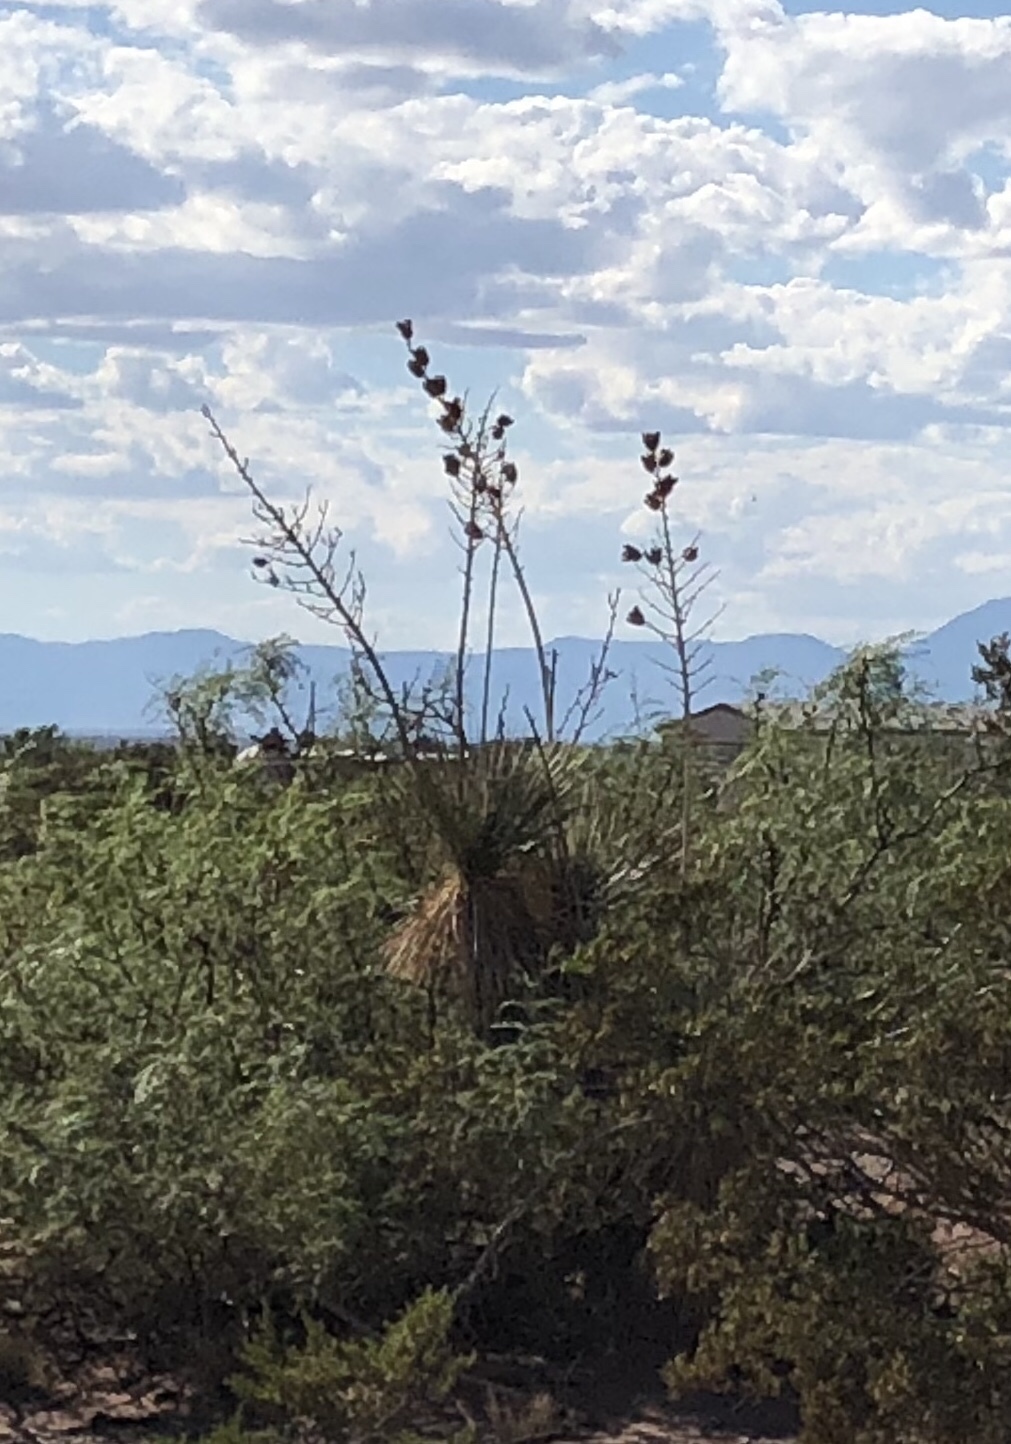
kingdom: Plantae
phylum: Tracheophyta
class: Liliopsida
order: Asparagales
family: Asparagaceae
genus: Yucca
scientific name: Yucca elata
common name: Palmella
